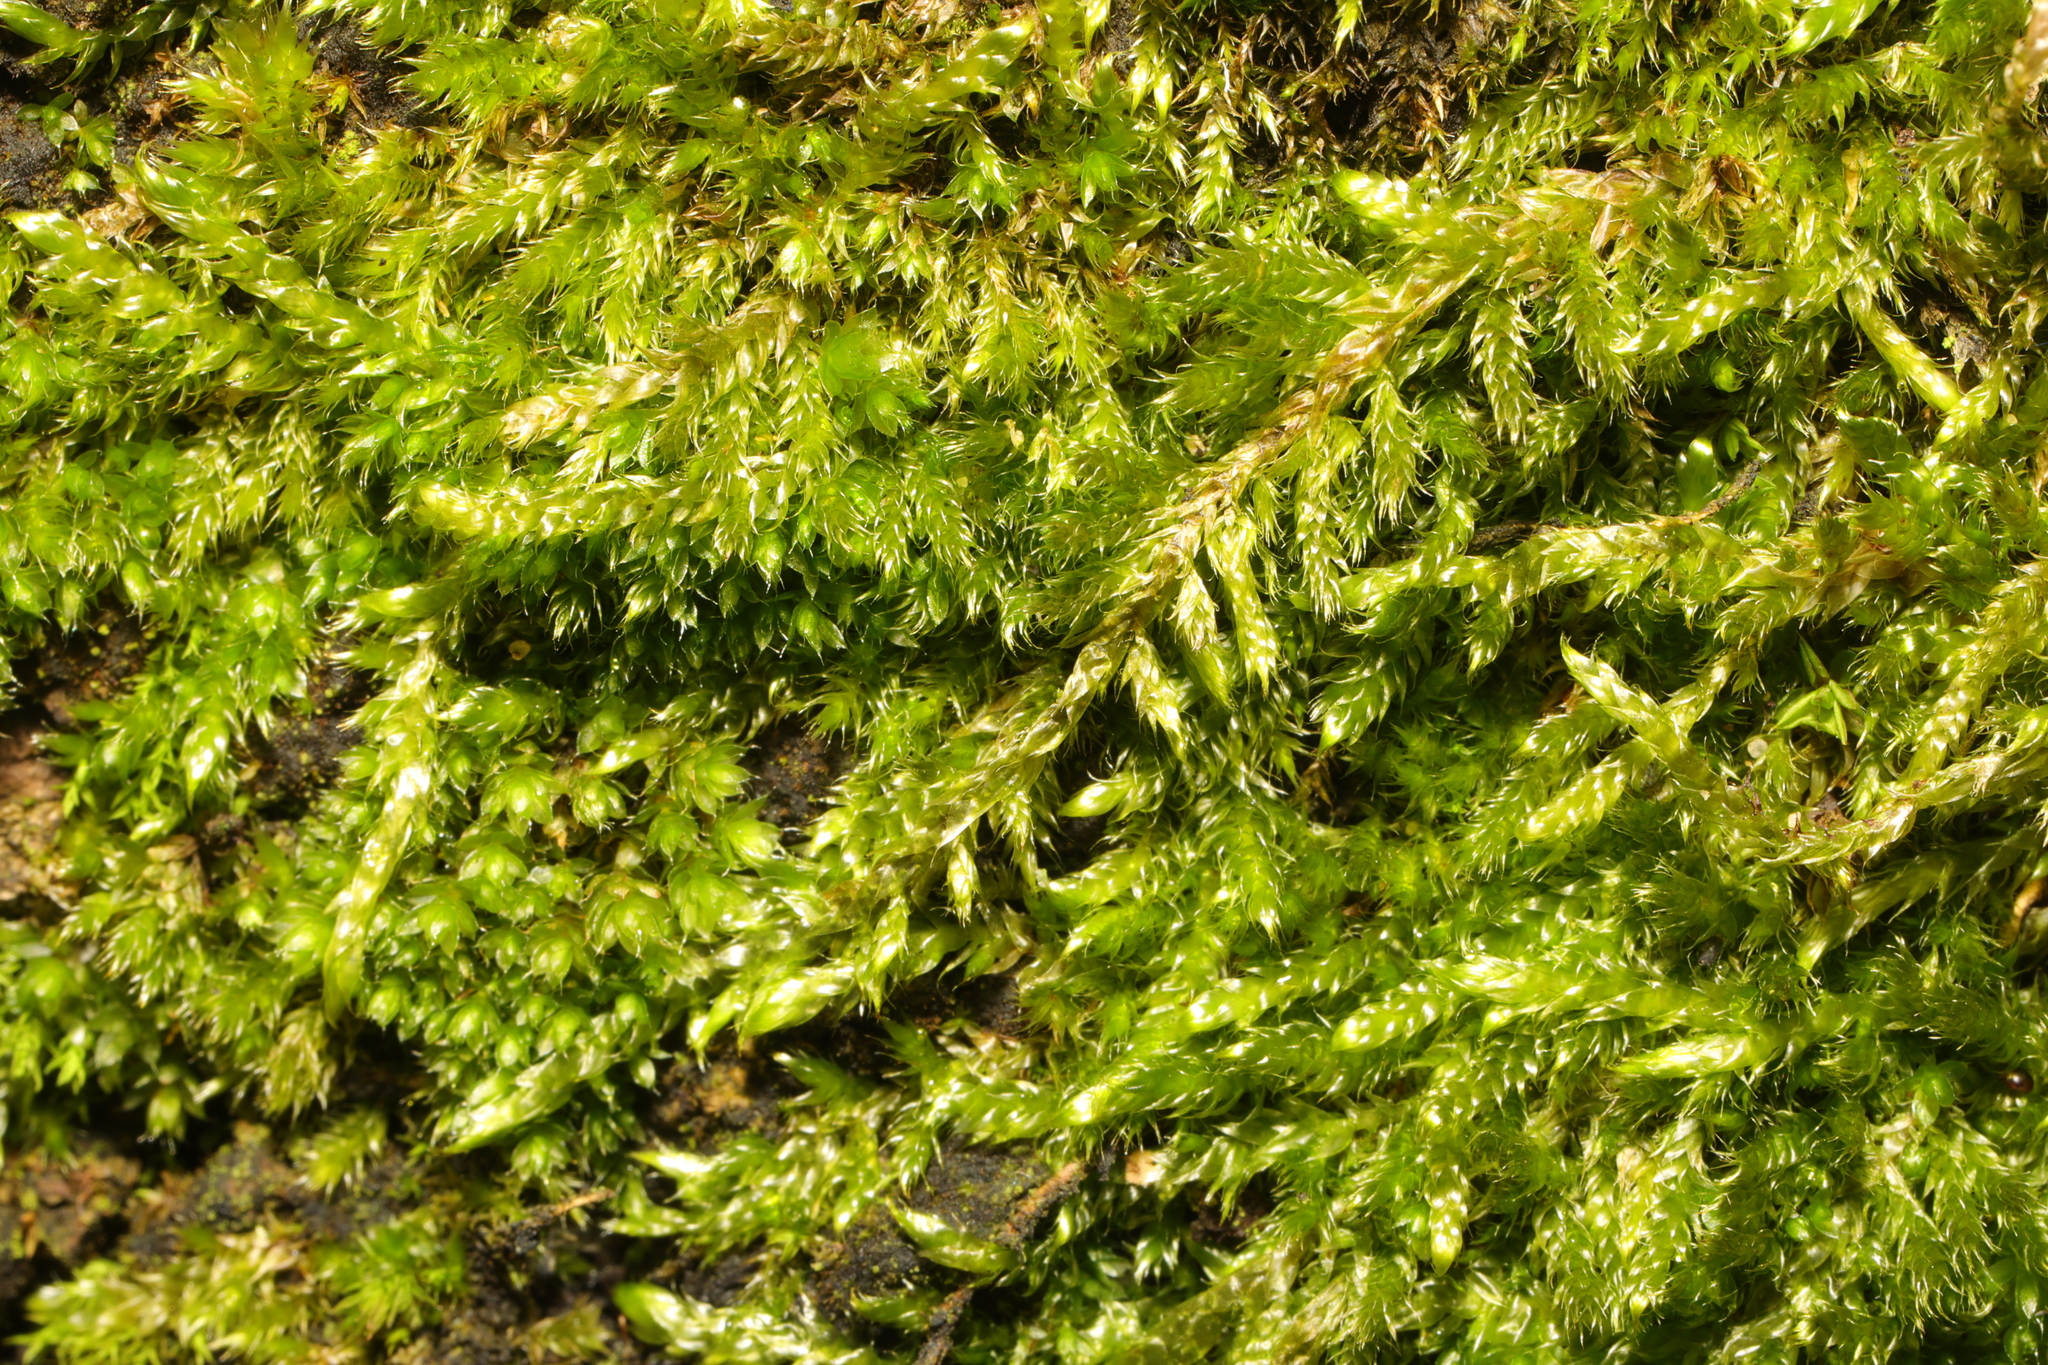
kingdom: Plantae
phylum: Bryophyta
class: Bryopsida
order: Hypnales
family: Hypnaceae
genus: Hypnum
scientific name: Hypnum cupressiforme
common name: Cypress-leaved plait-moss
